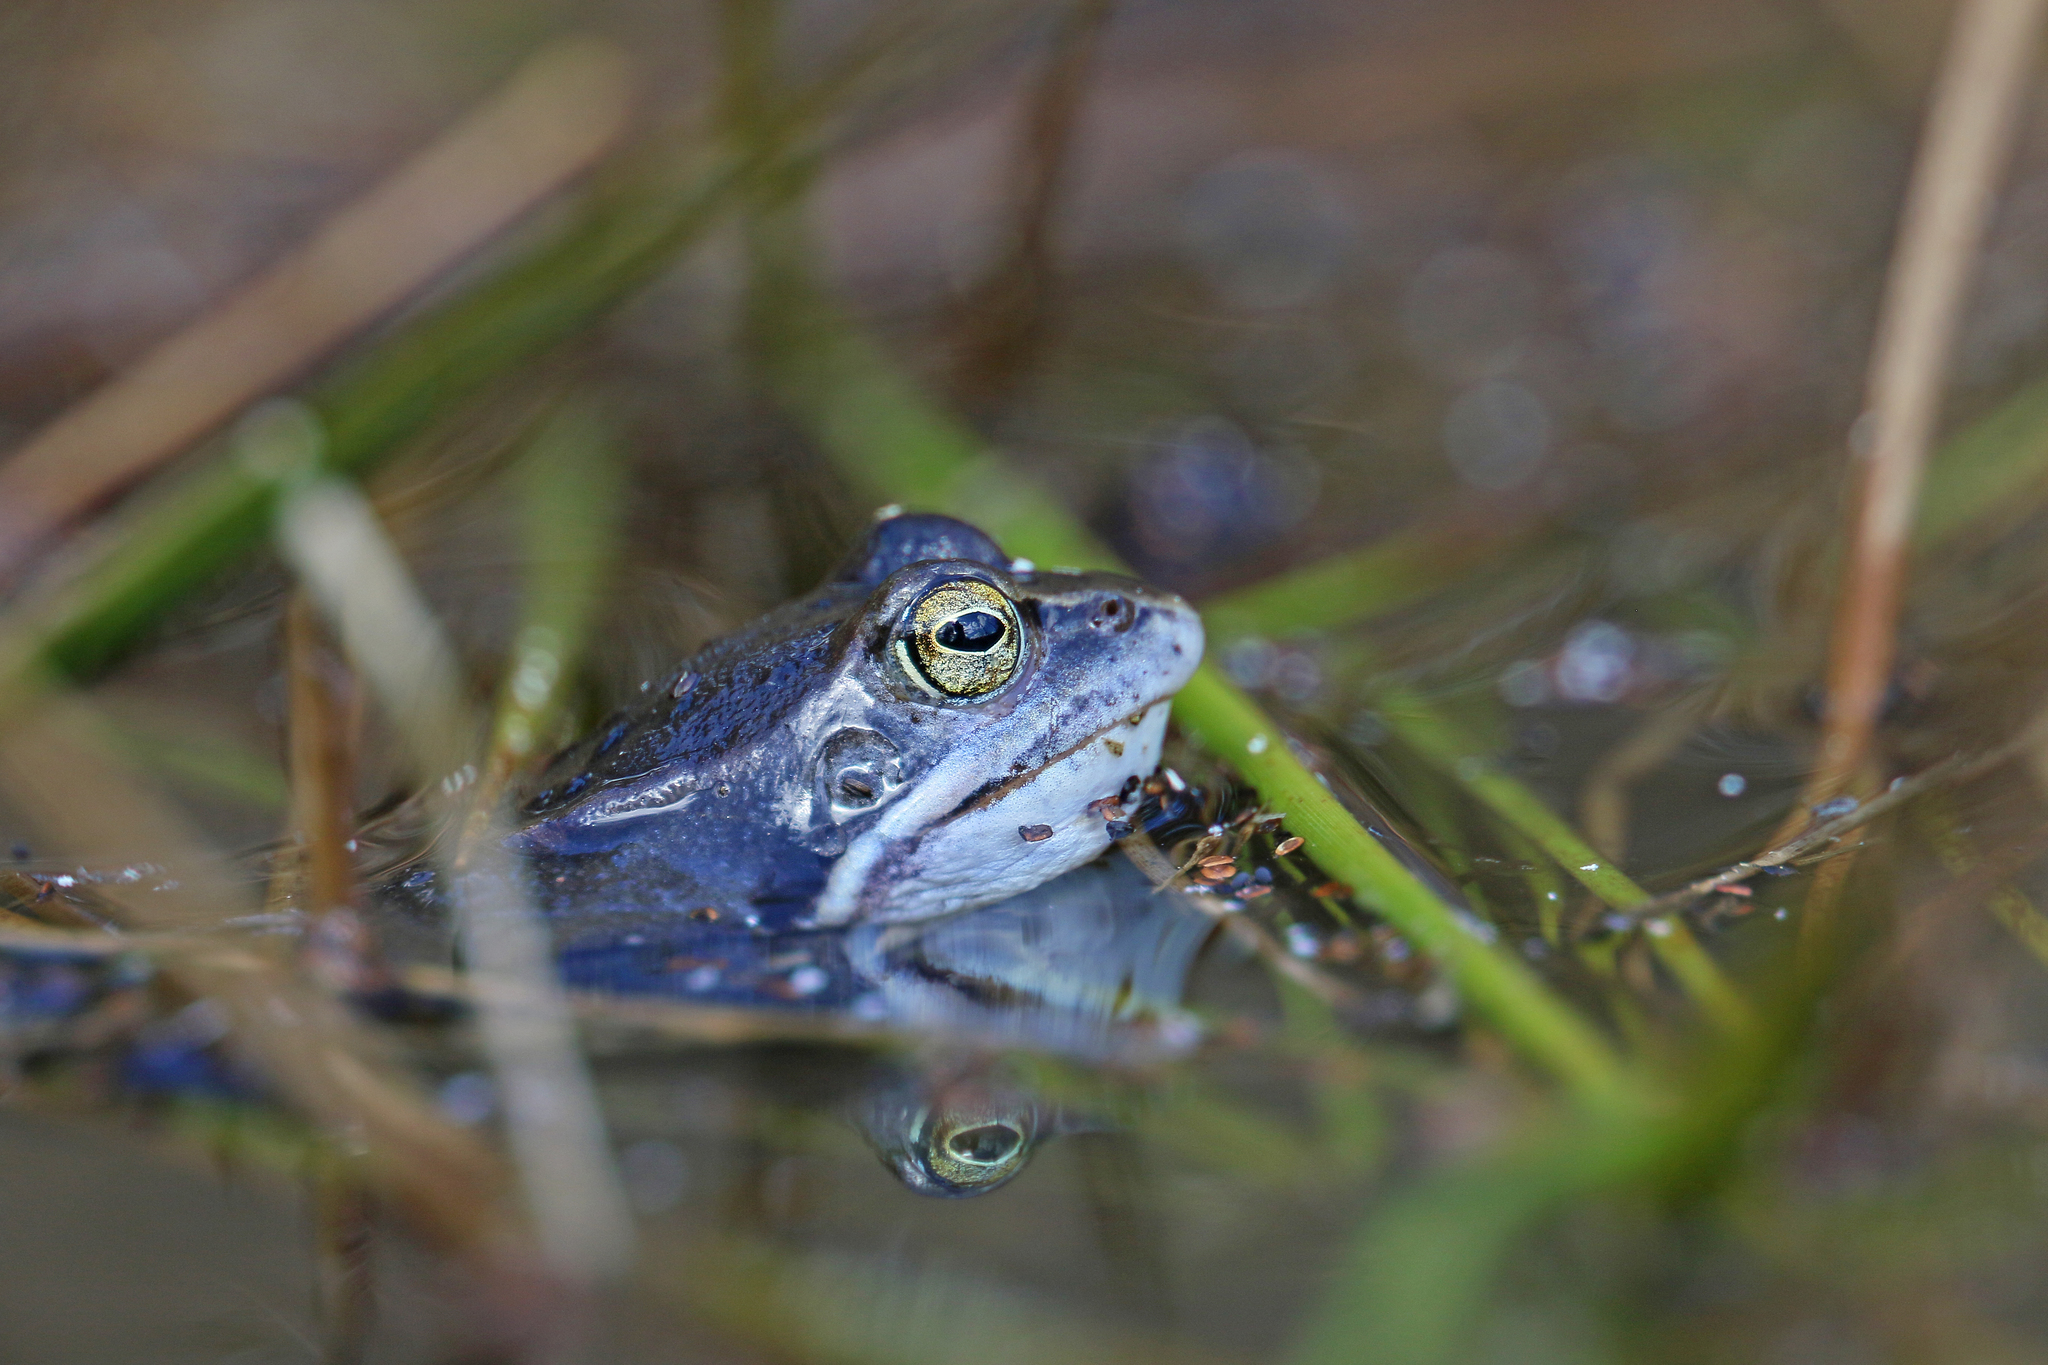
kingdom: Animalia
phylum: Chordata
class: Amphibia
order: Anura
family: Ranidae
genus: Rana
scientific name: Rana arvalis
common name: Moor frog
